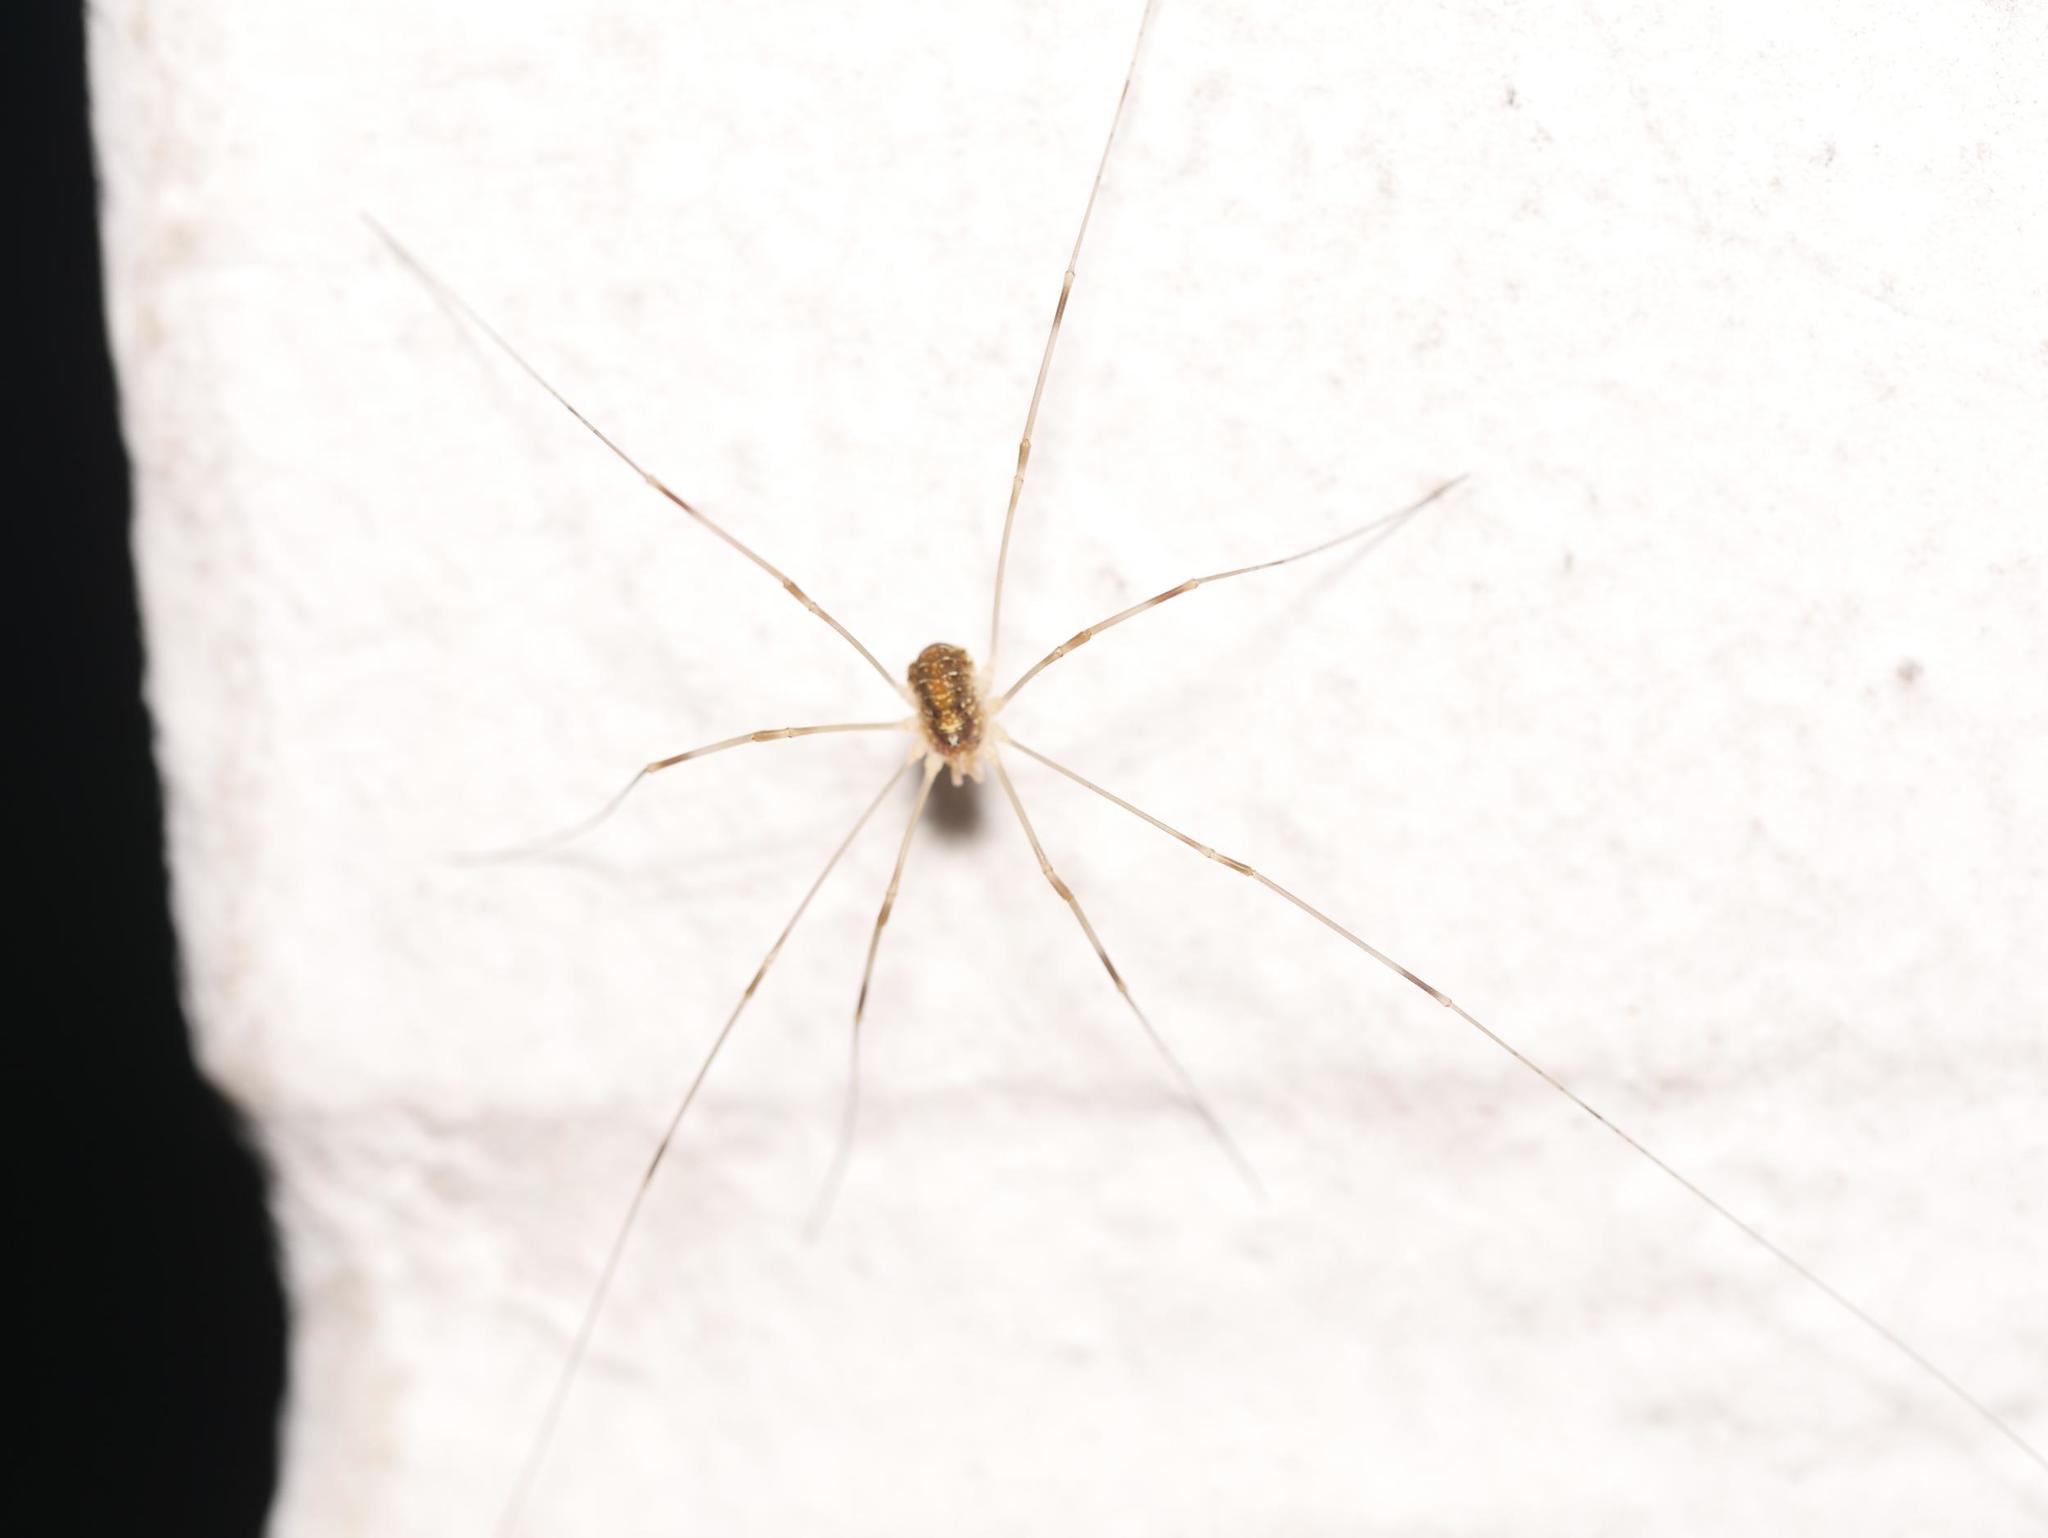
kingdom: Animalia
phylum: Arthropoda
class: Arachnida
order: Opiliones
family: Phalangiidae
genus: Opilio
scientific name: Opilio canestrinii
